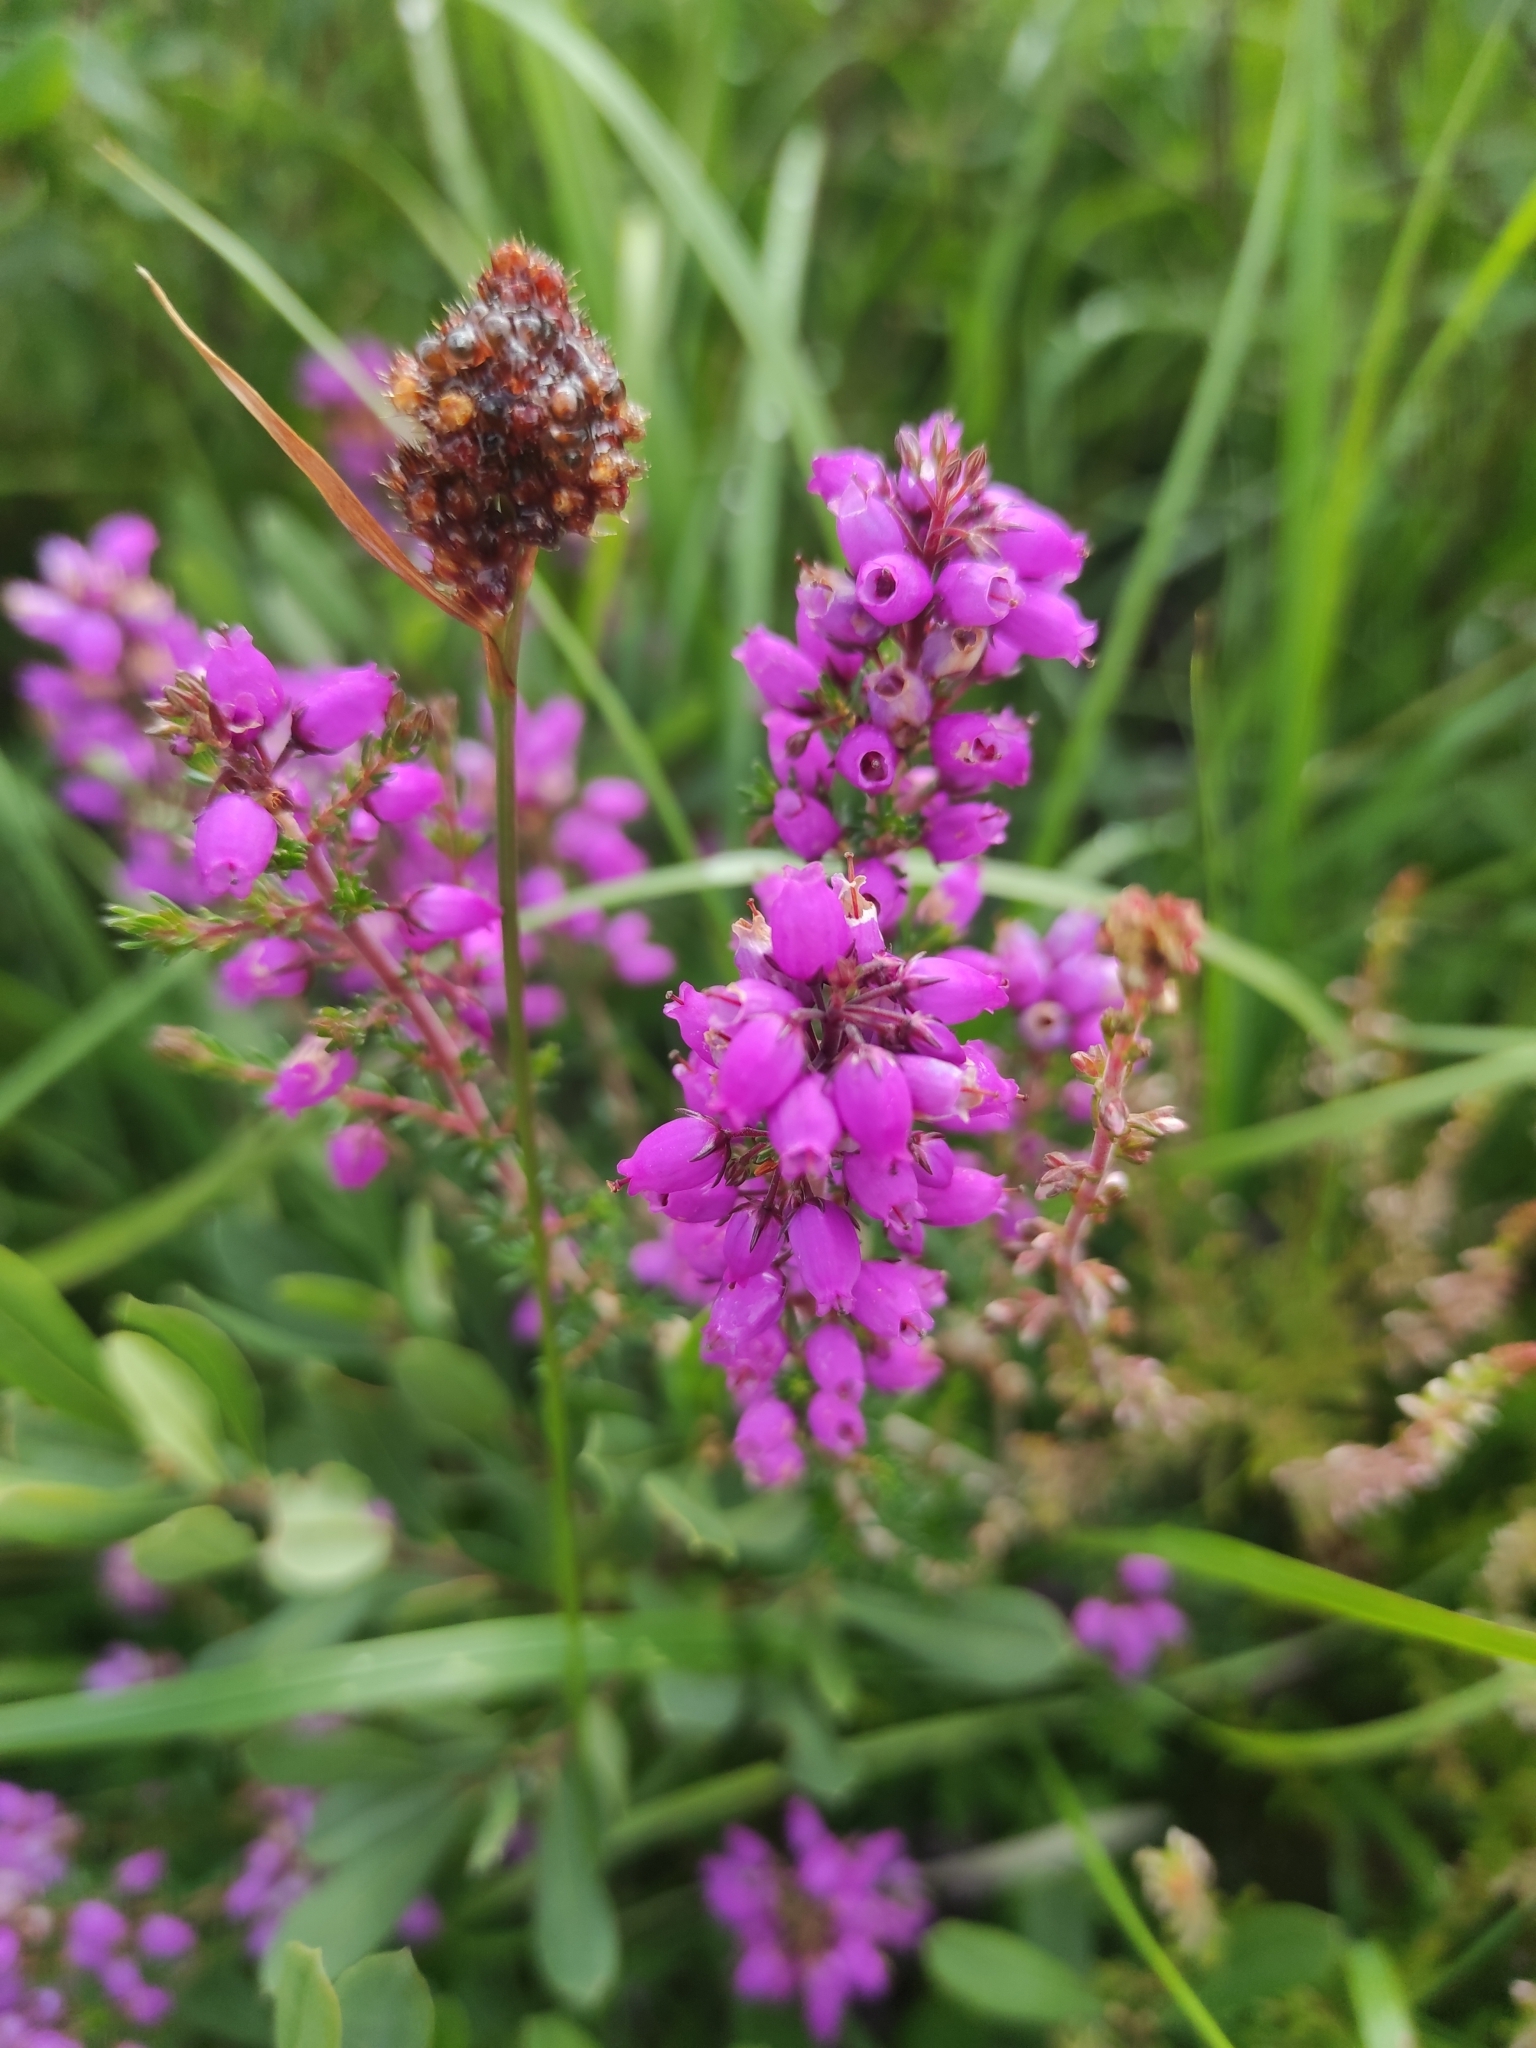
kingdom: Plantae
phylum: Tracheophyta
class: Magnoliopsida
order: Ericales
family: Ericaceae
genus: Erica
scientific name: Erica cinerea
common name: Bell heather
